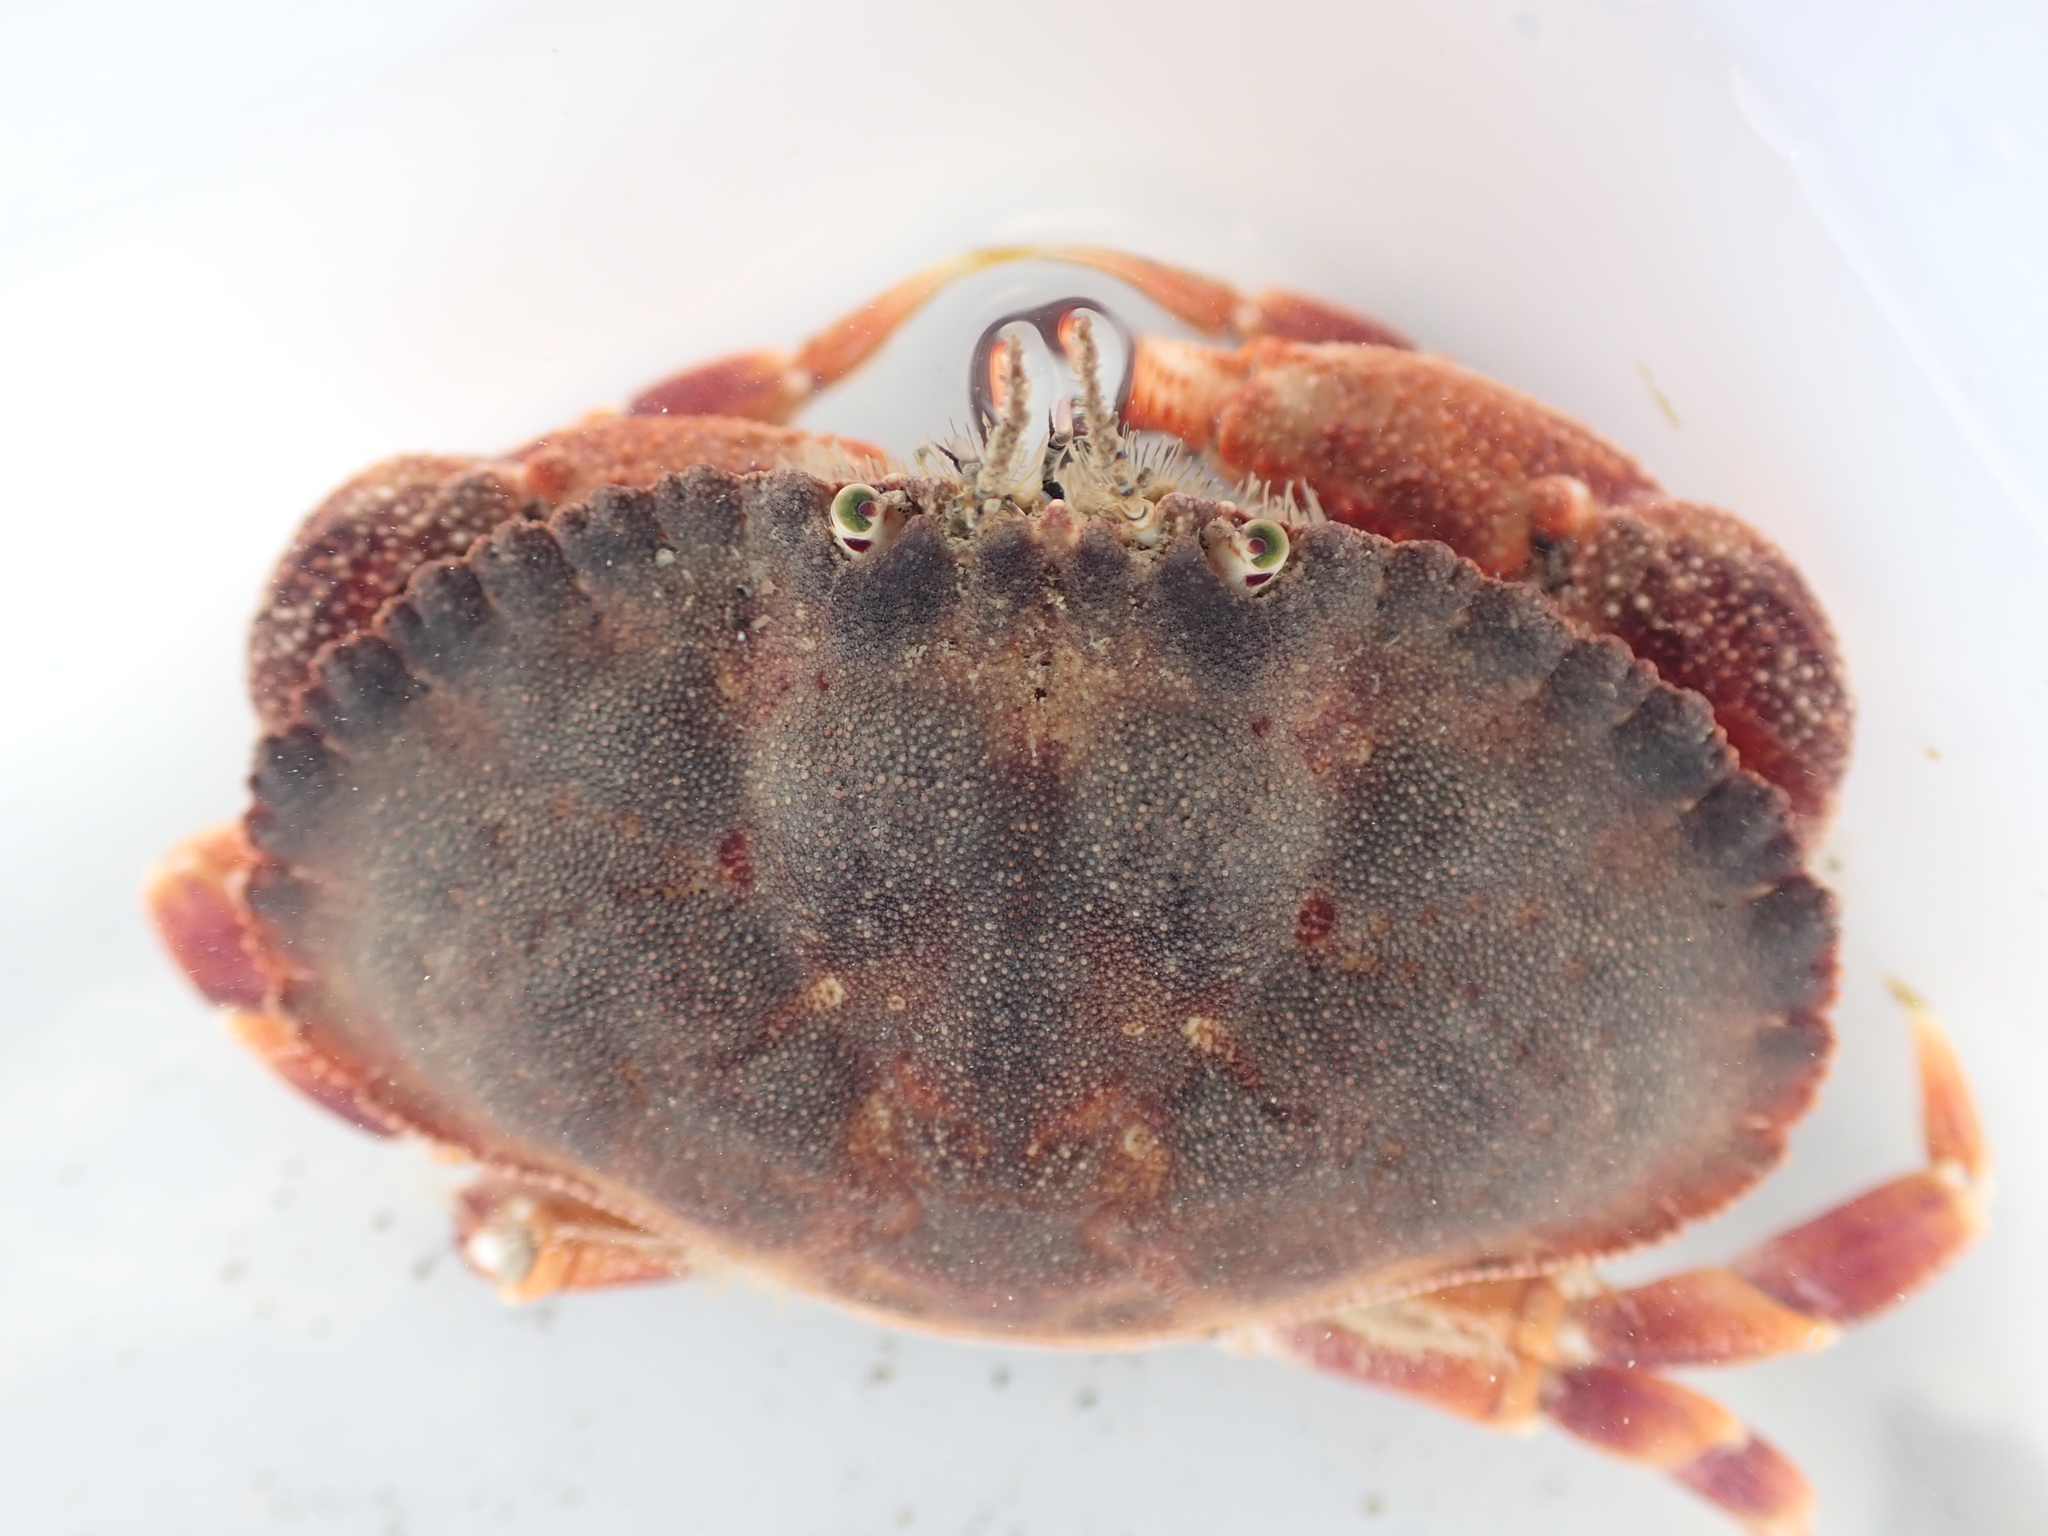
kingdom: Animalia
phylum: Arthropoda
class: Malacostraca
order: Decapoda
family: Cancridae
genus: Metacarcinus
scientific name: Metacarcinus novaezelandiae
